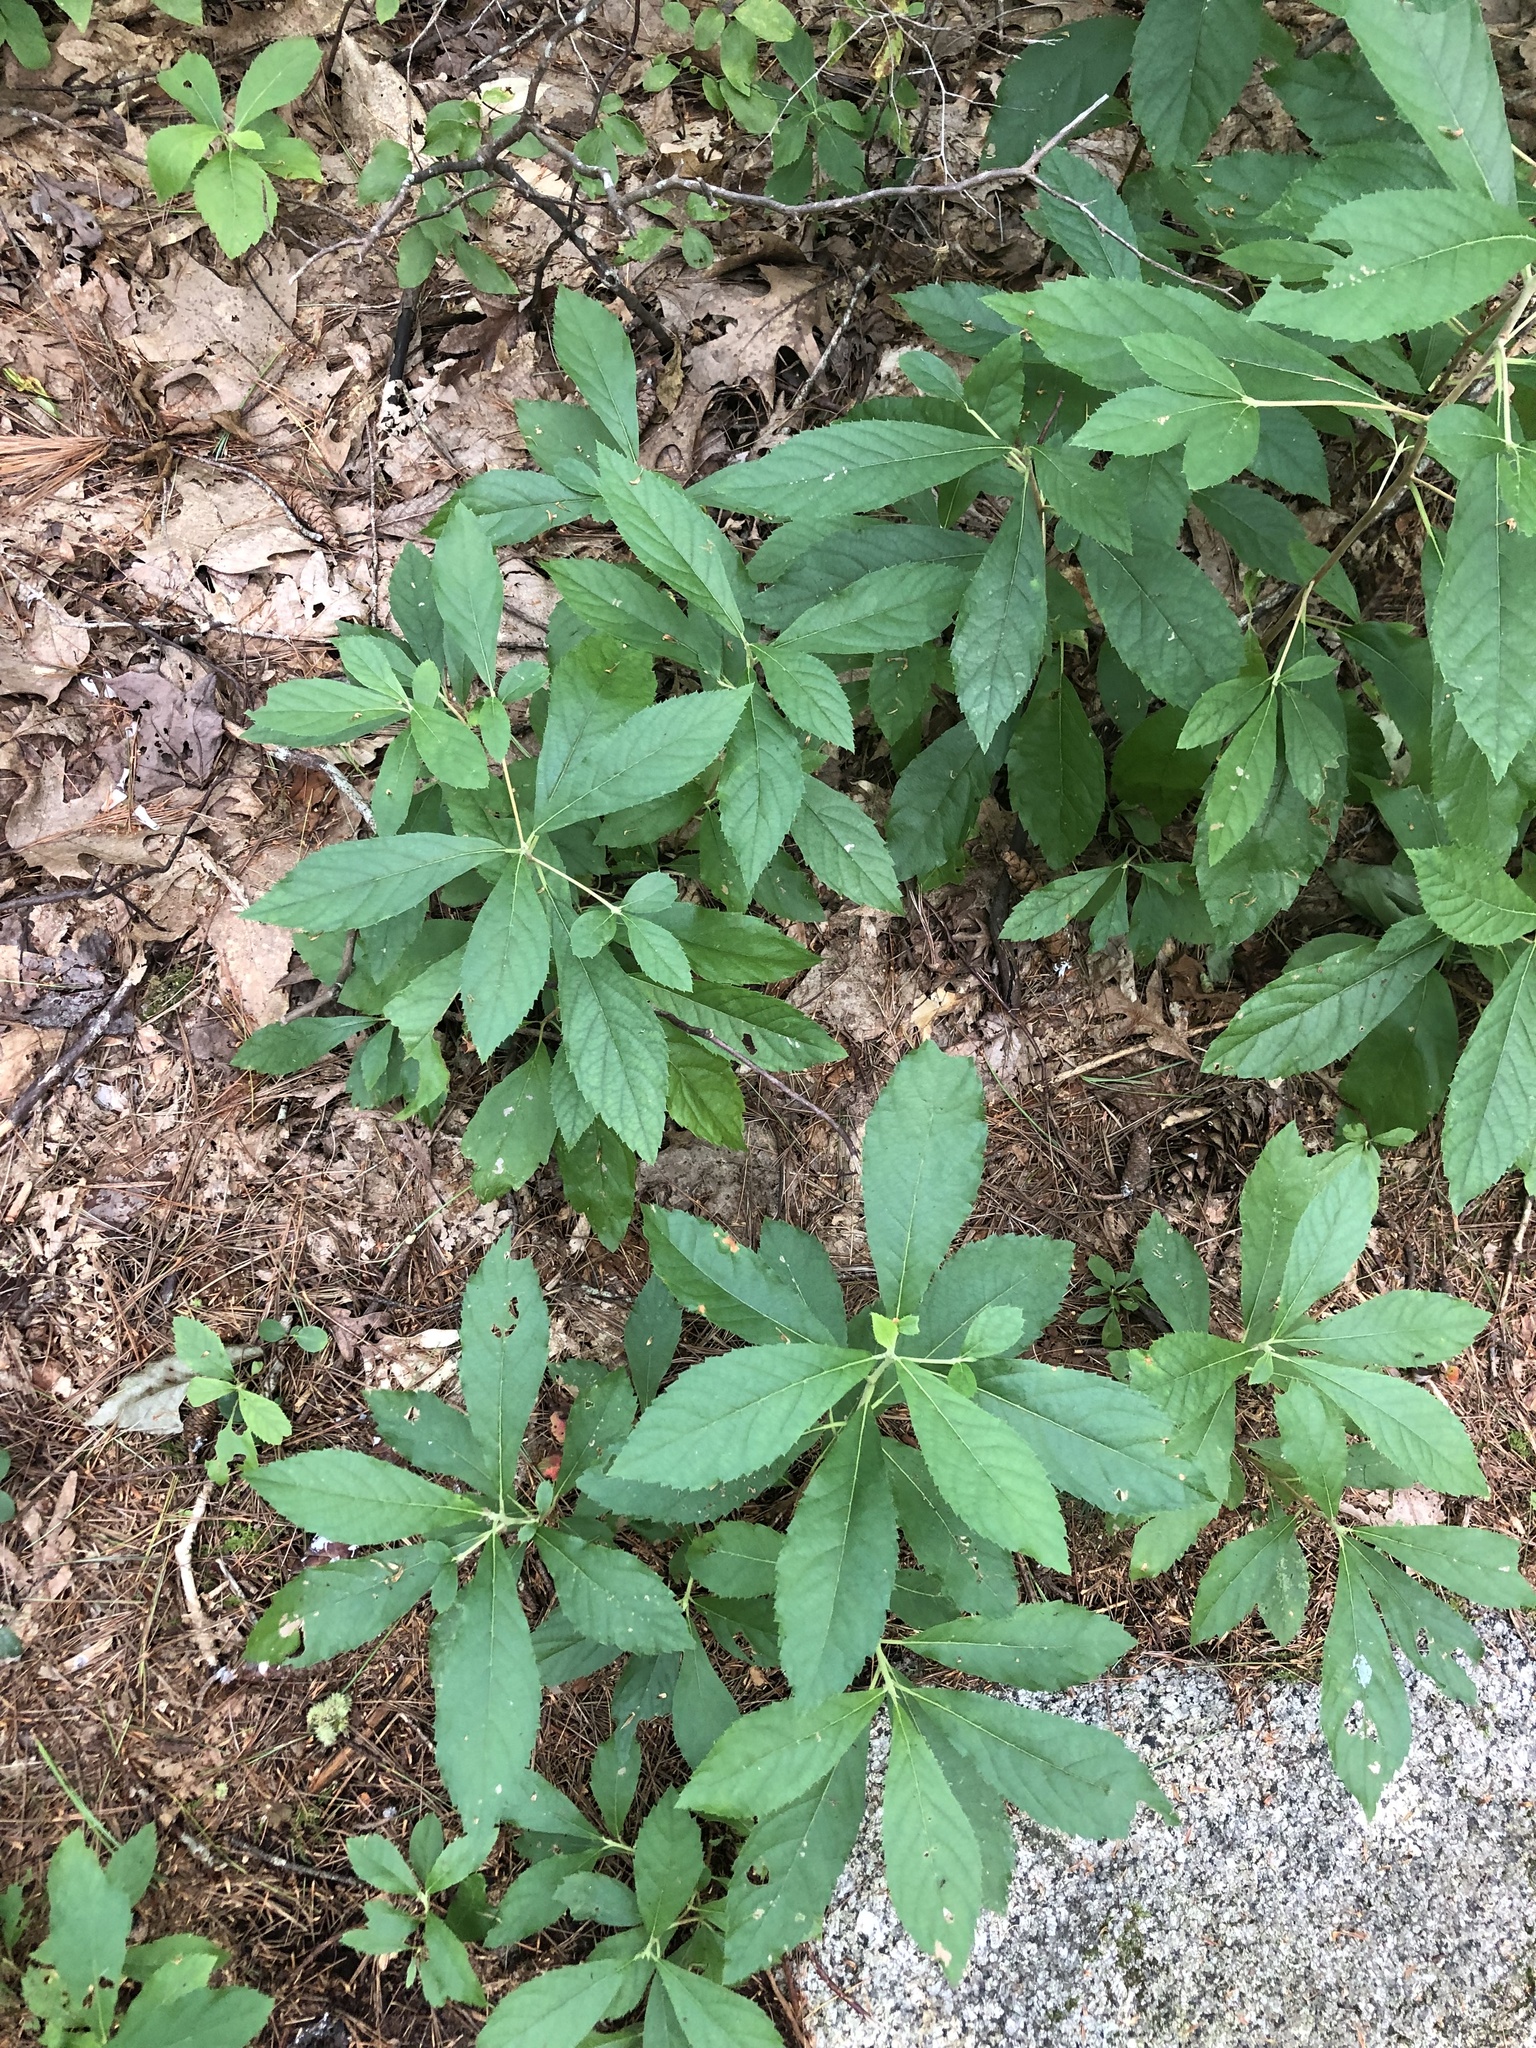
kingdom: Plantae
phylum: Tracheophyta
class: Magnoliopsida
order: Ericales
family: Clethraceae
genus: Clethra
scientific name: Clethra alnifolia
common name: Sweet pepperbush
